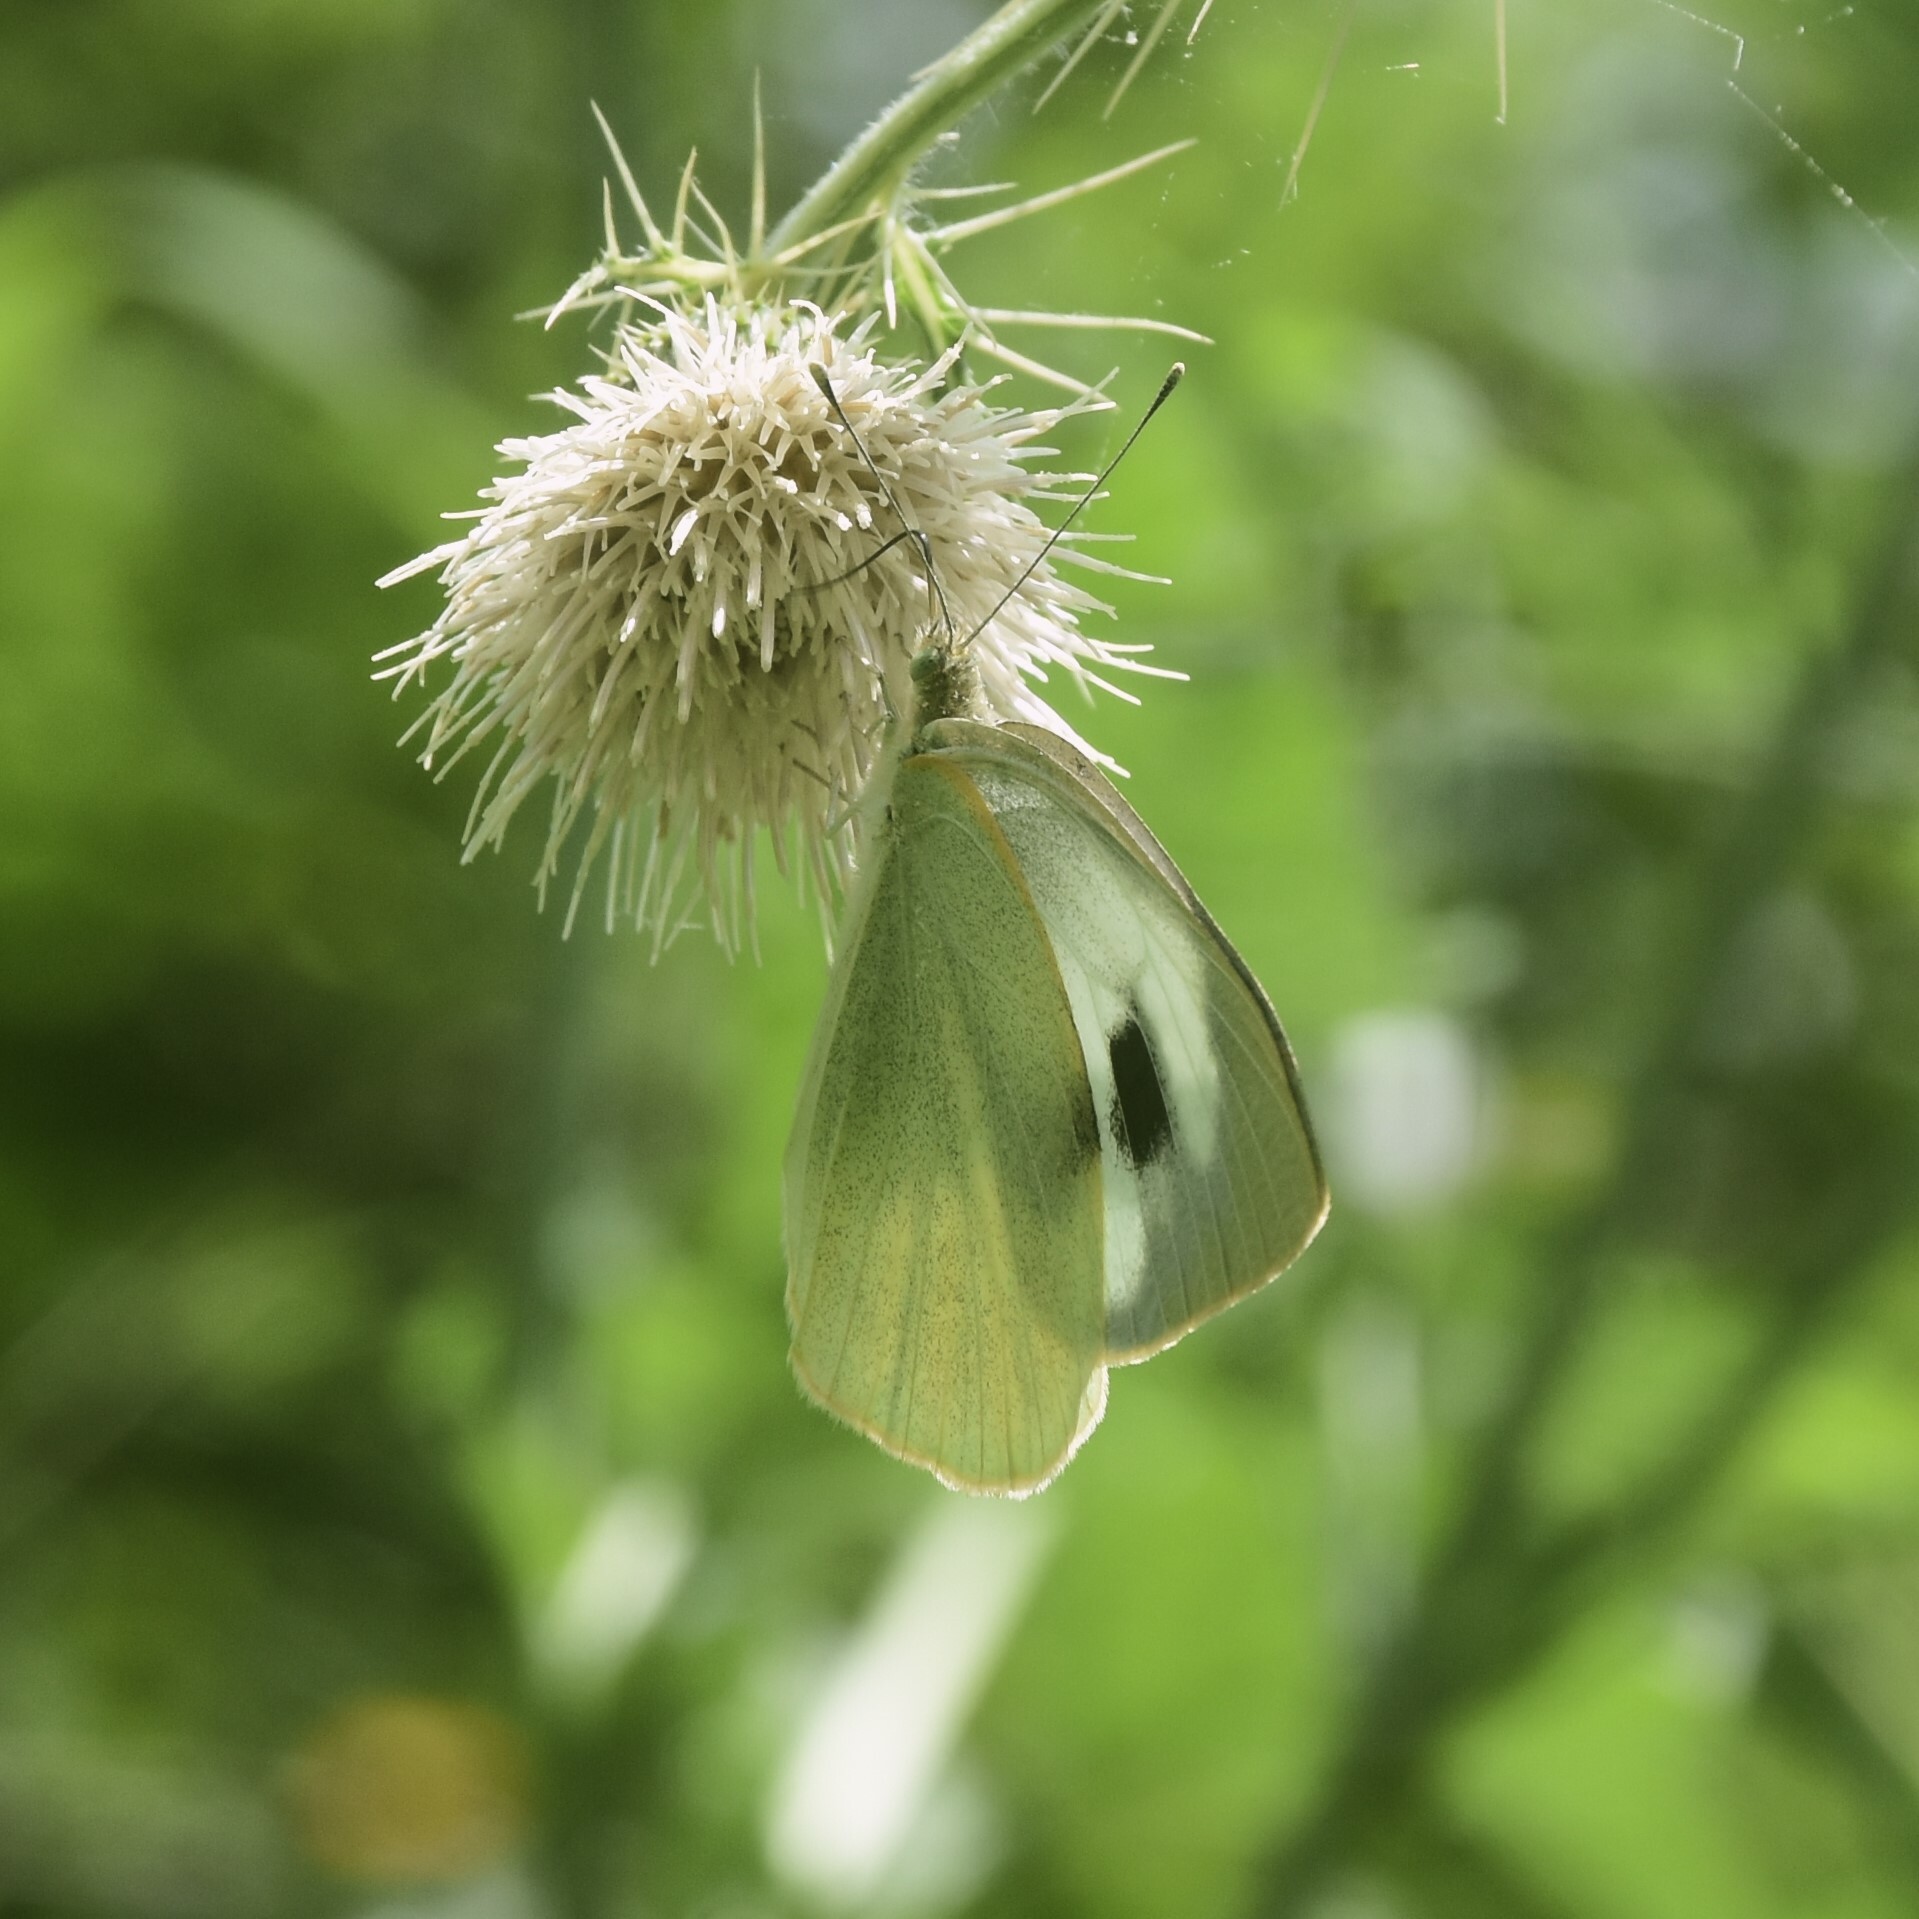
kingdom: Animalia
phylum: Arthropoda
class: Insecta
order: Lepidoptera
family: Pieridae
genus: Pieris
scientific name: Pieris brassicae
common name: Large white
